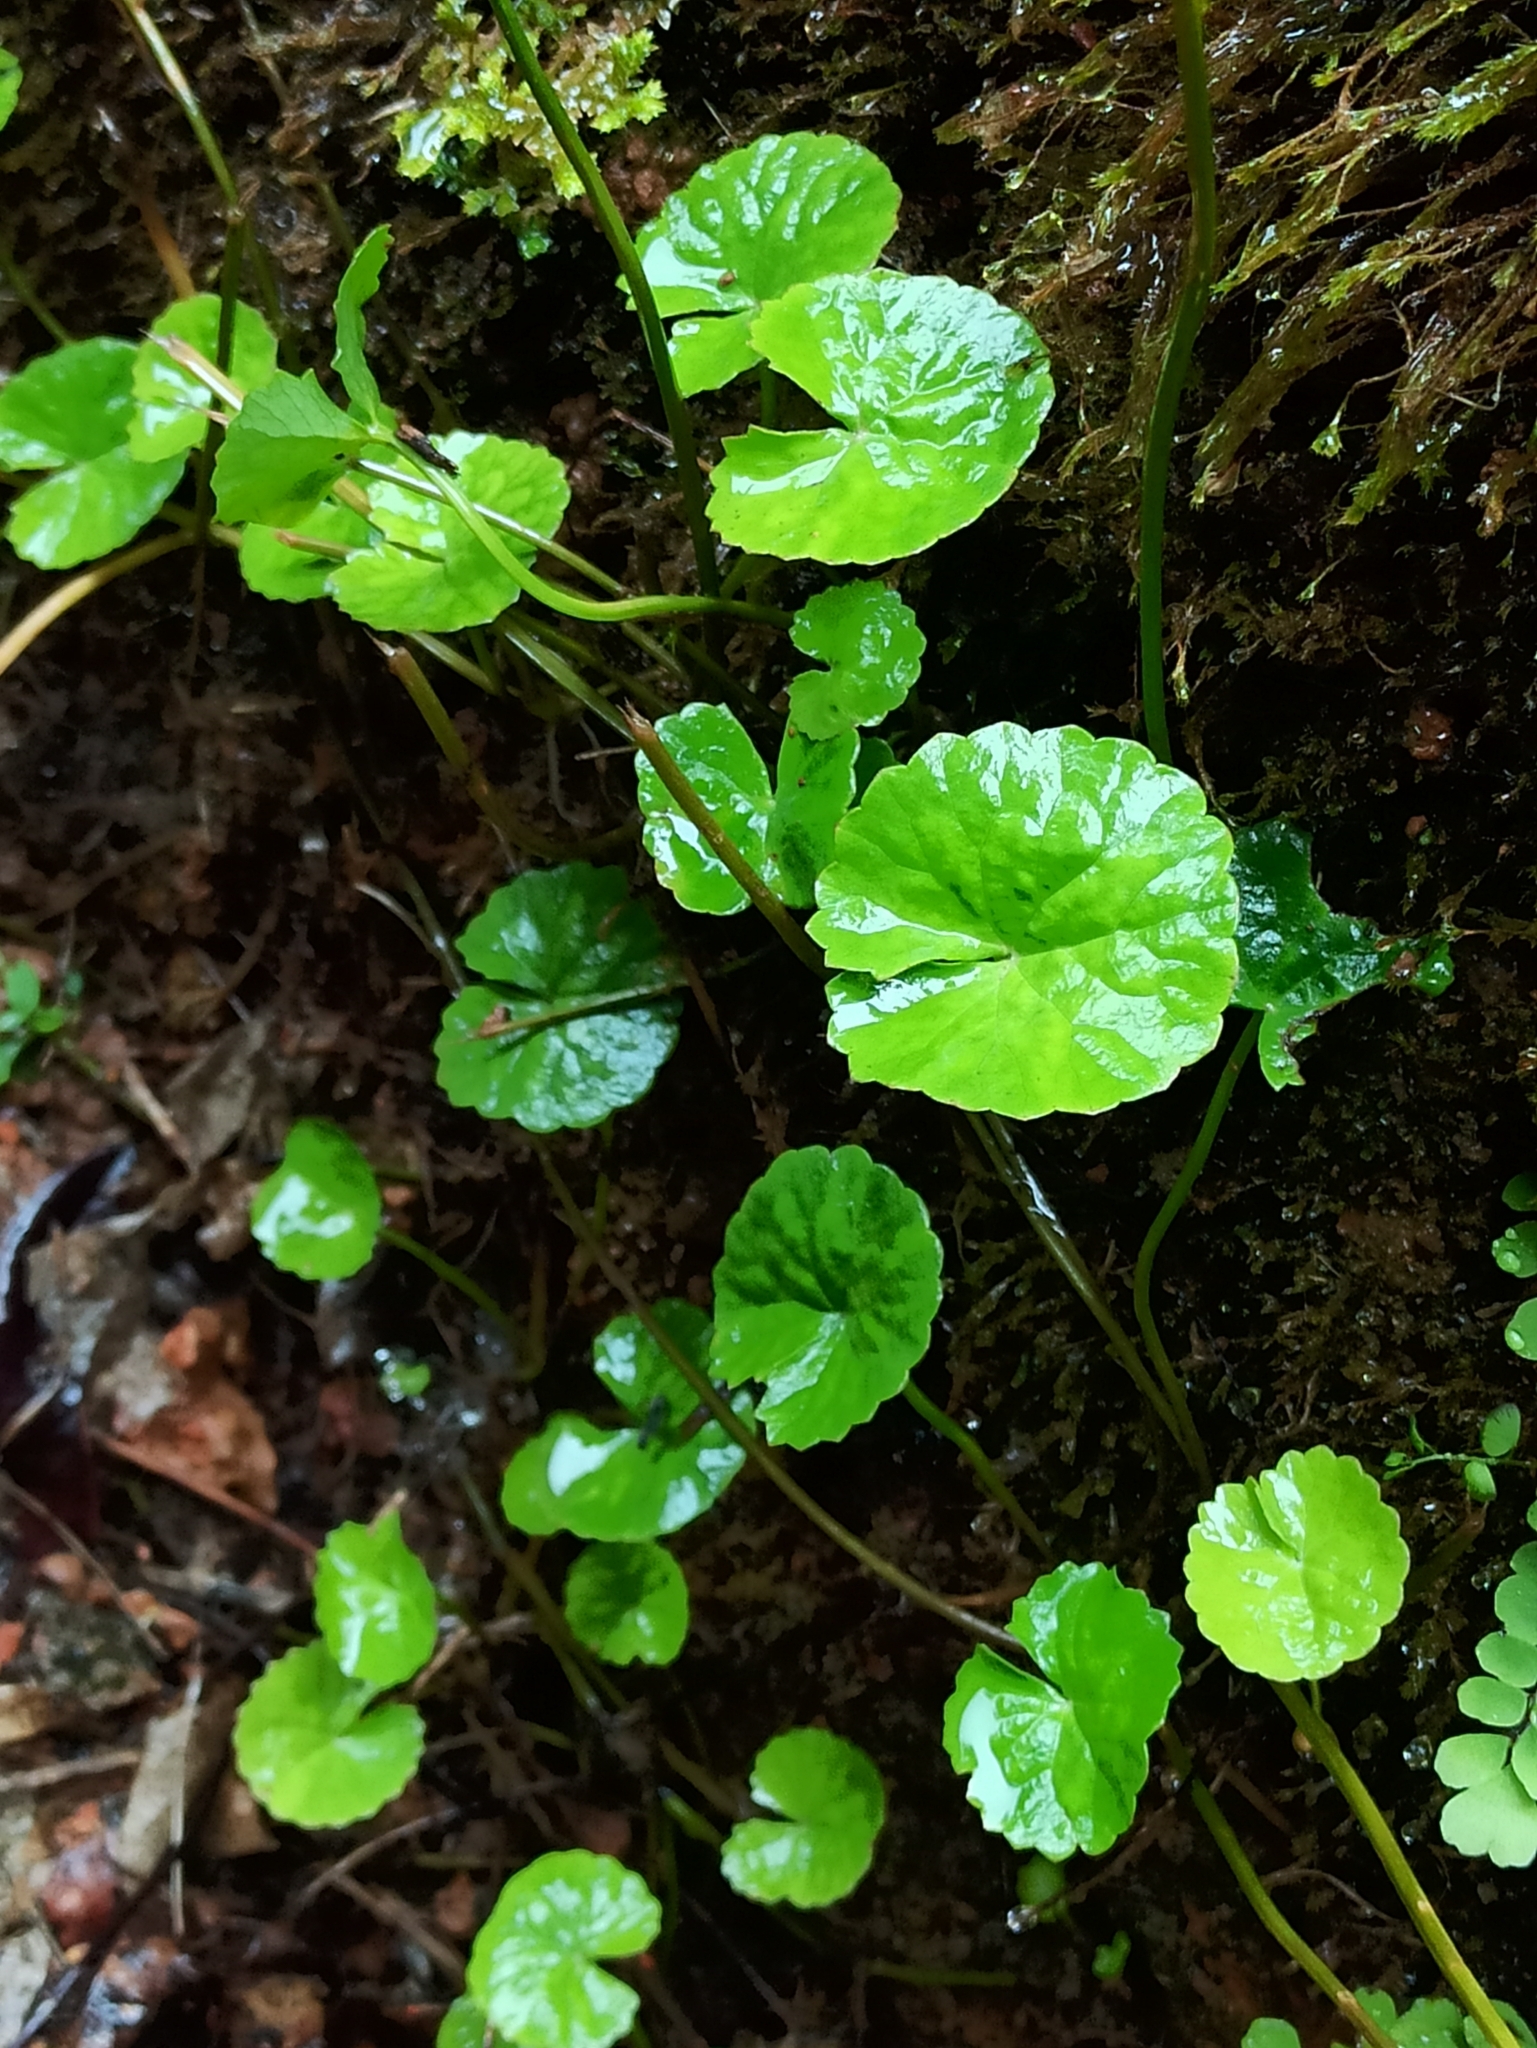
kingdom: Plantae
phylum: Tracheophyta
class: Magnoliopsida
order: Apiales
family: Apiaceae
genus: Centella
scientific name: Centella asiatica
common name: Spadeleaf
